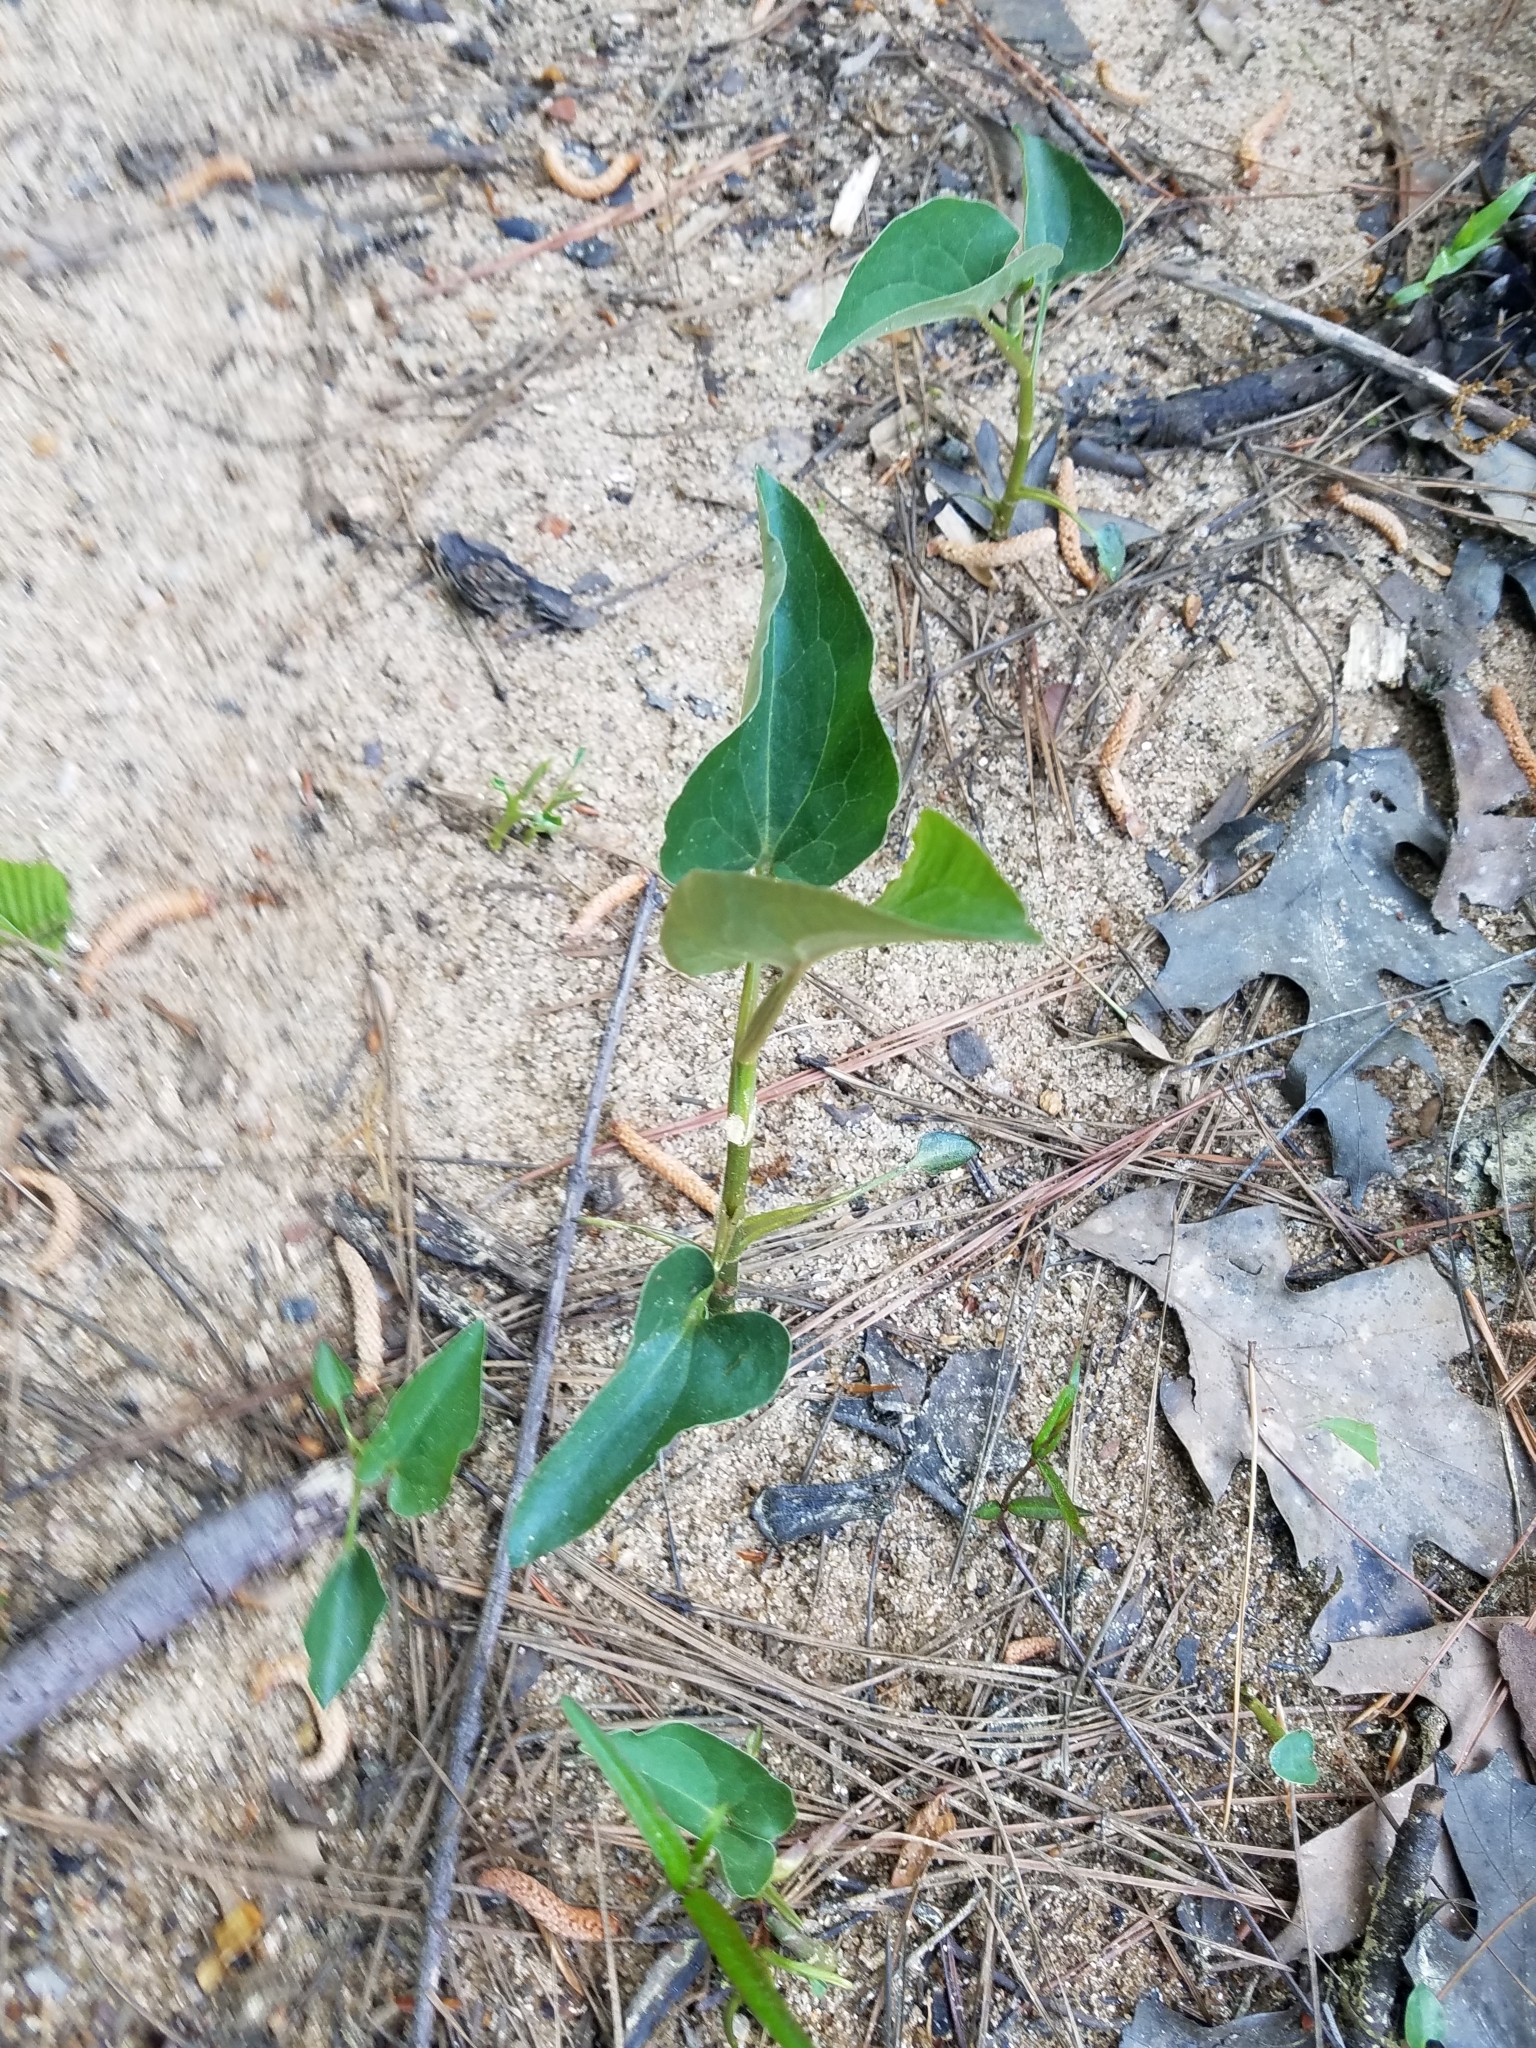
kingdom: Plantae
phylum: Tracheophyta
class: Magnoliopsida
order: Piperales
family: Saururaceae
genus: Saururus
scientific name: Saururus cernuus
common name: Lizard's-tail
